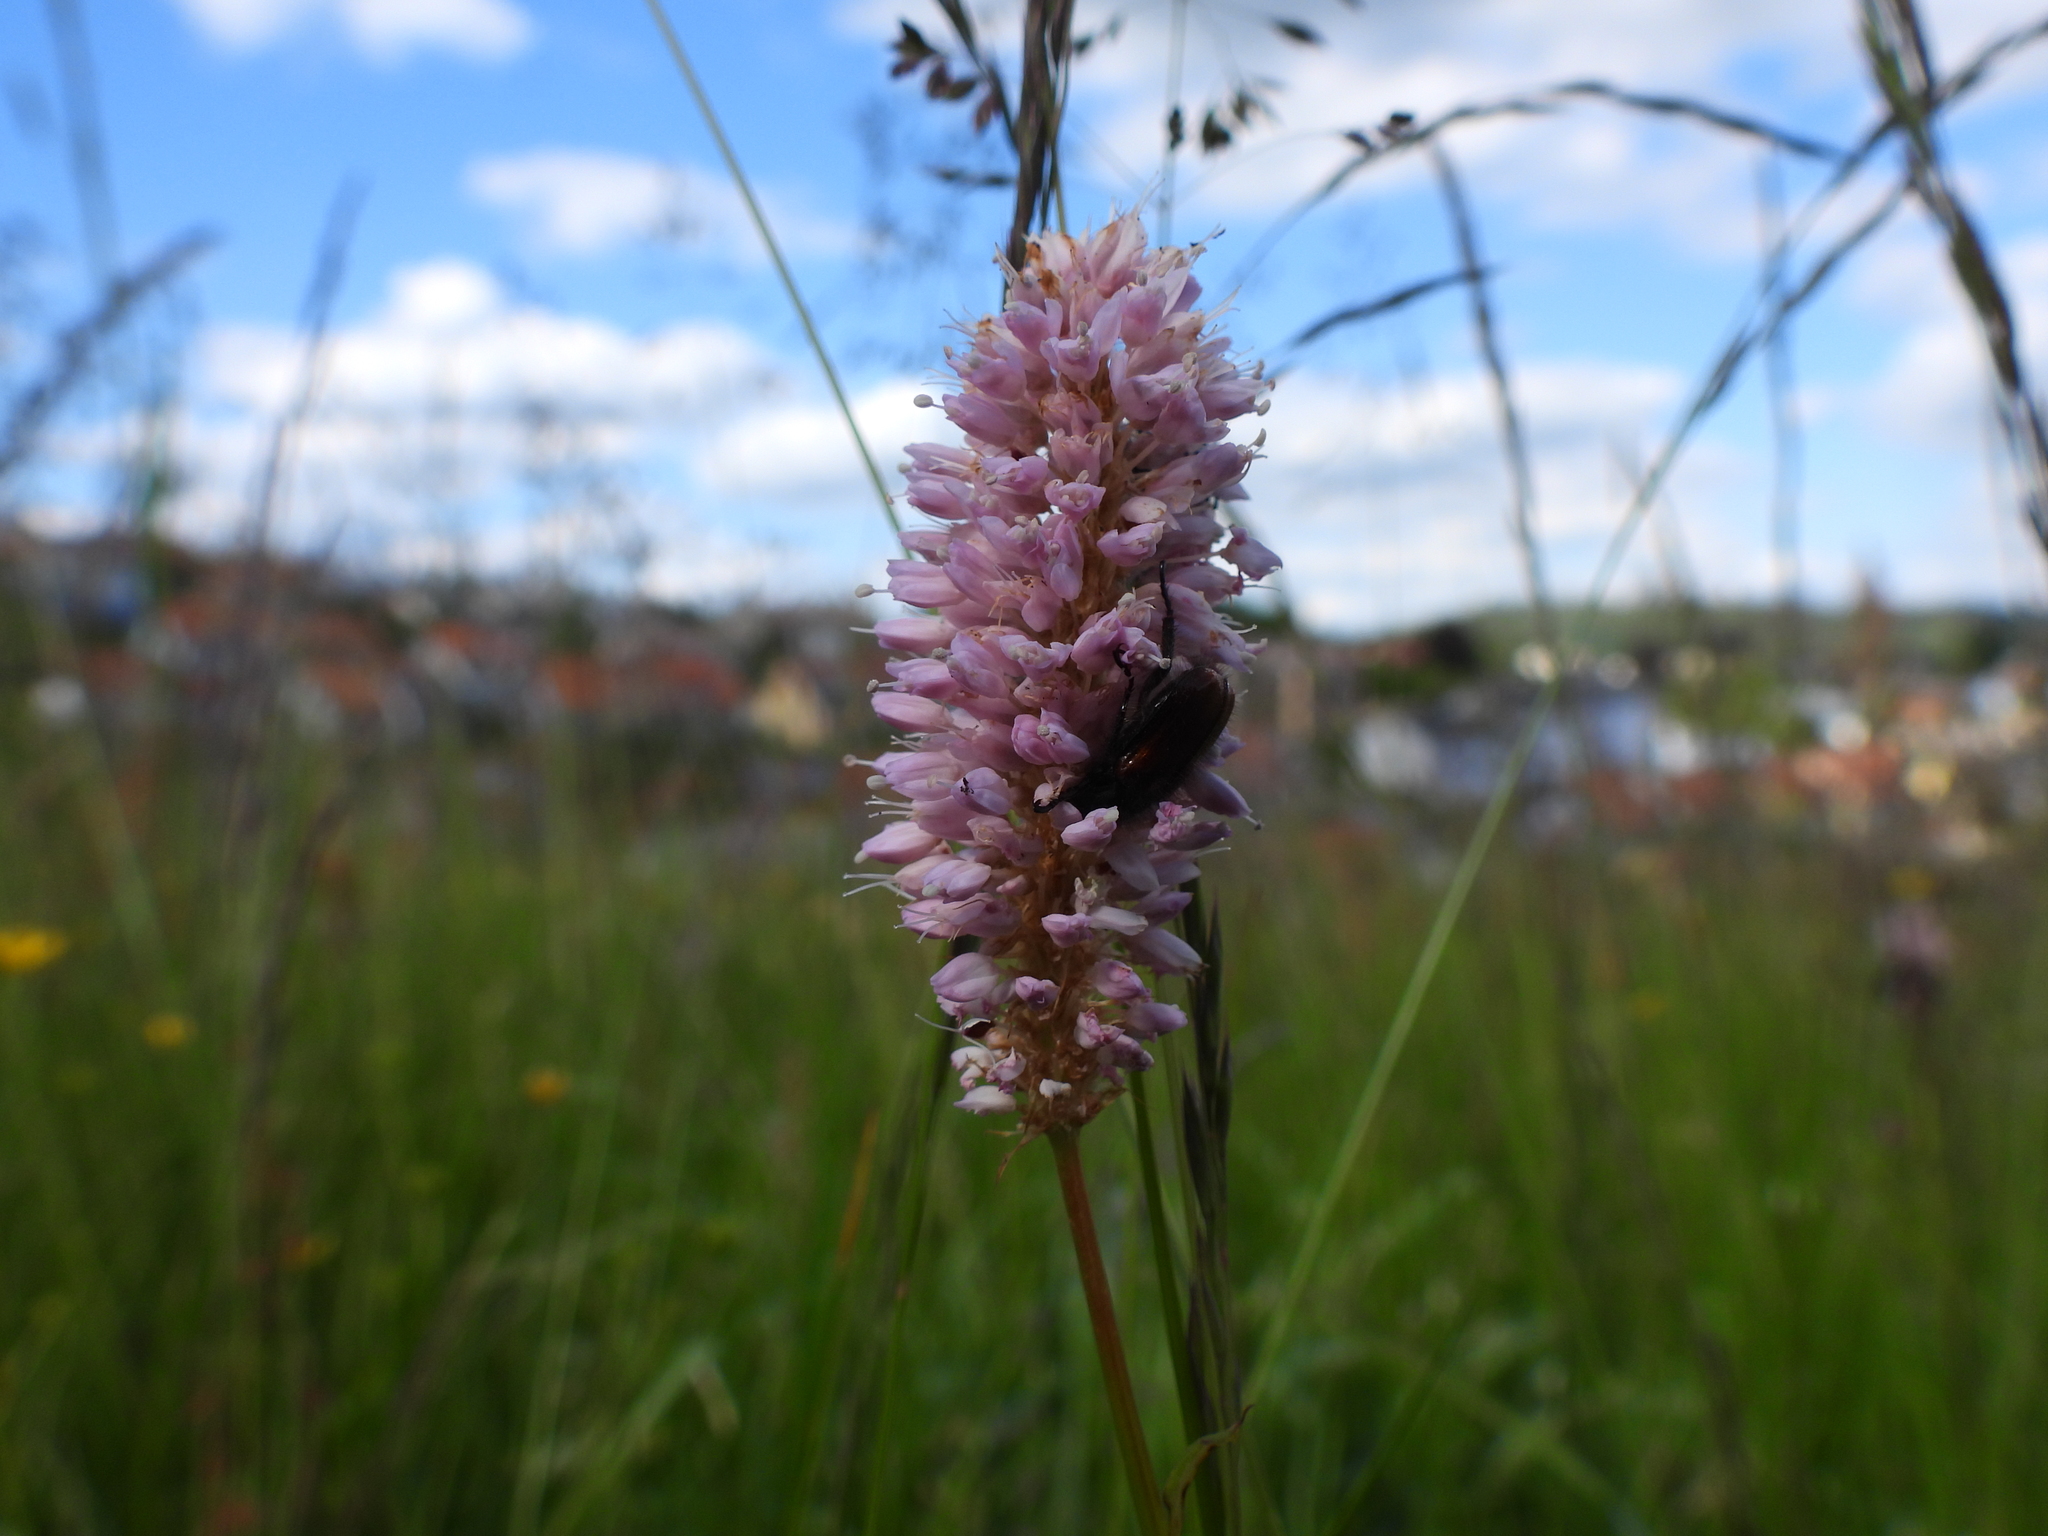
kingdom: Plantae
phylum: Tracheophyta
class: Magnoliopsida
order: Caryophyllales
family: Polygonaceae
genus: Bistorta
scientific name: Bistorta officinalis
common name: Common bistort
